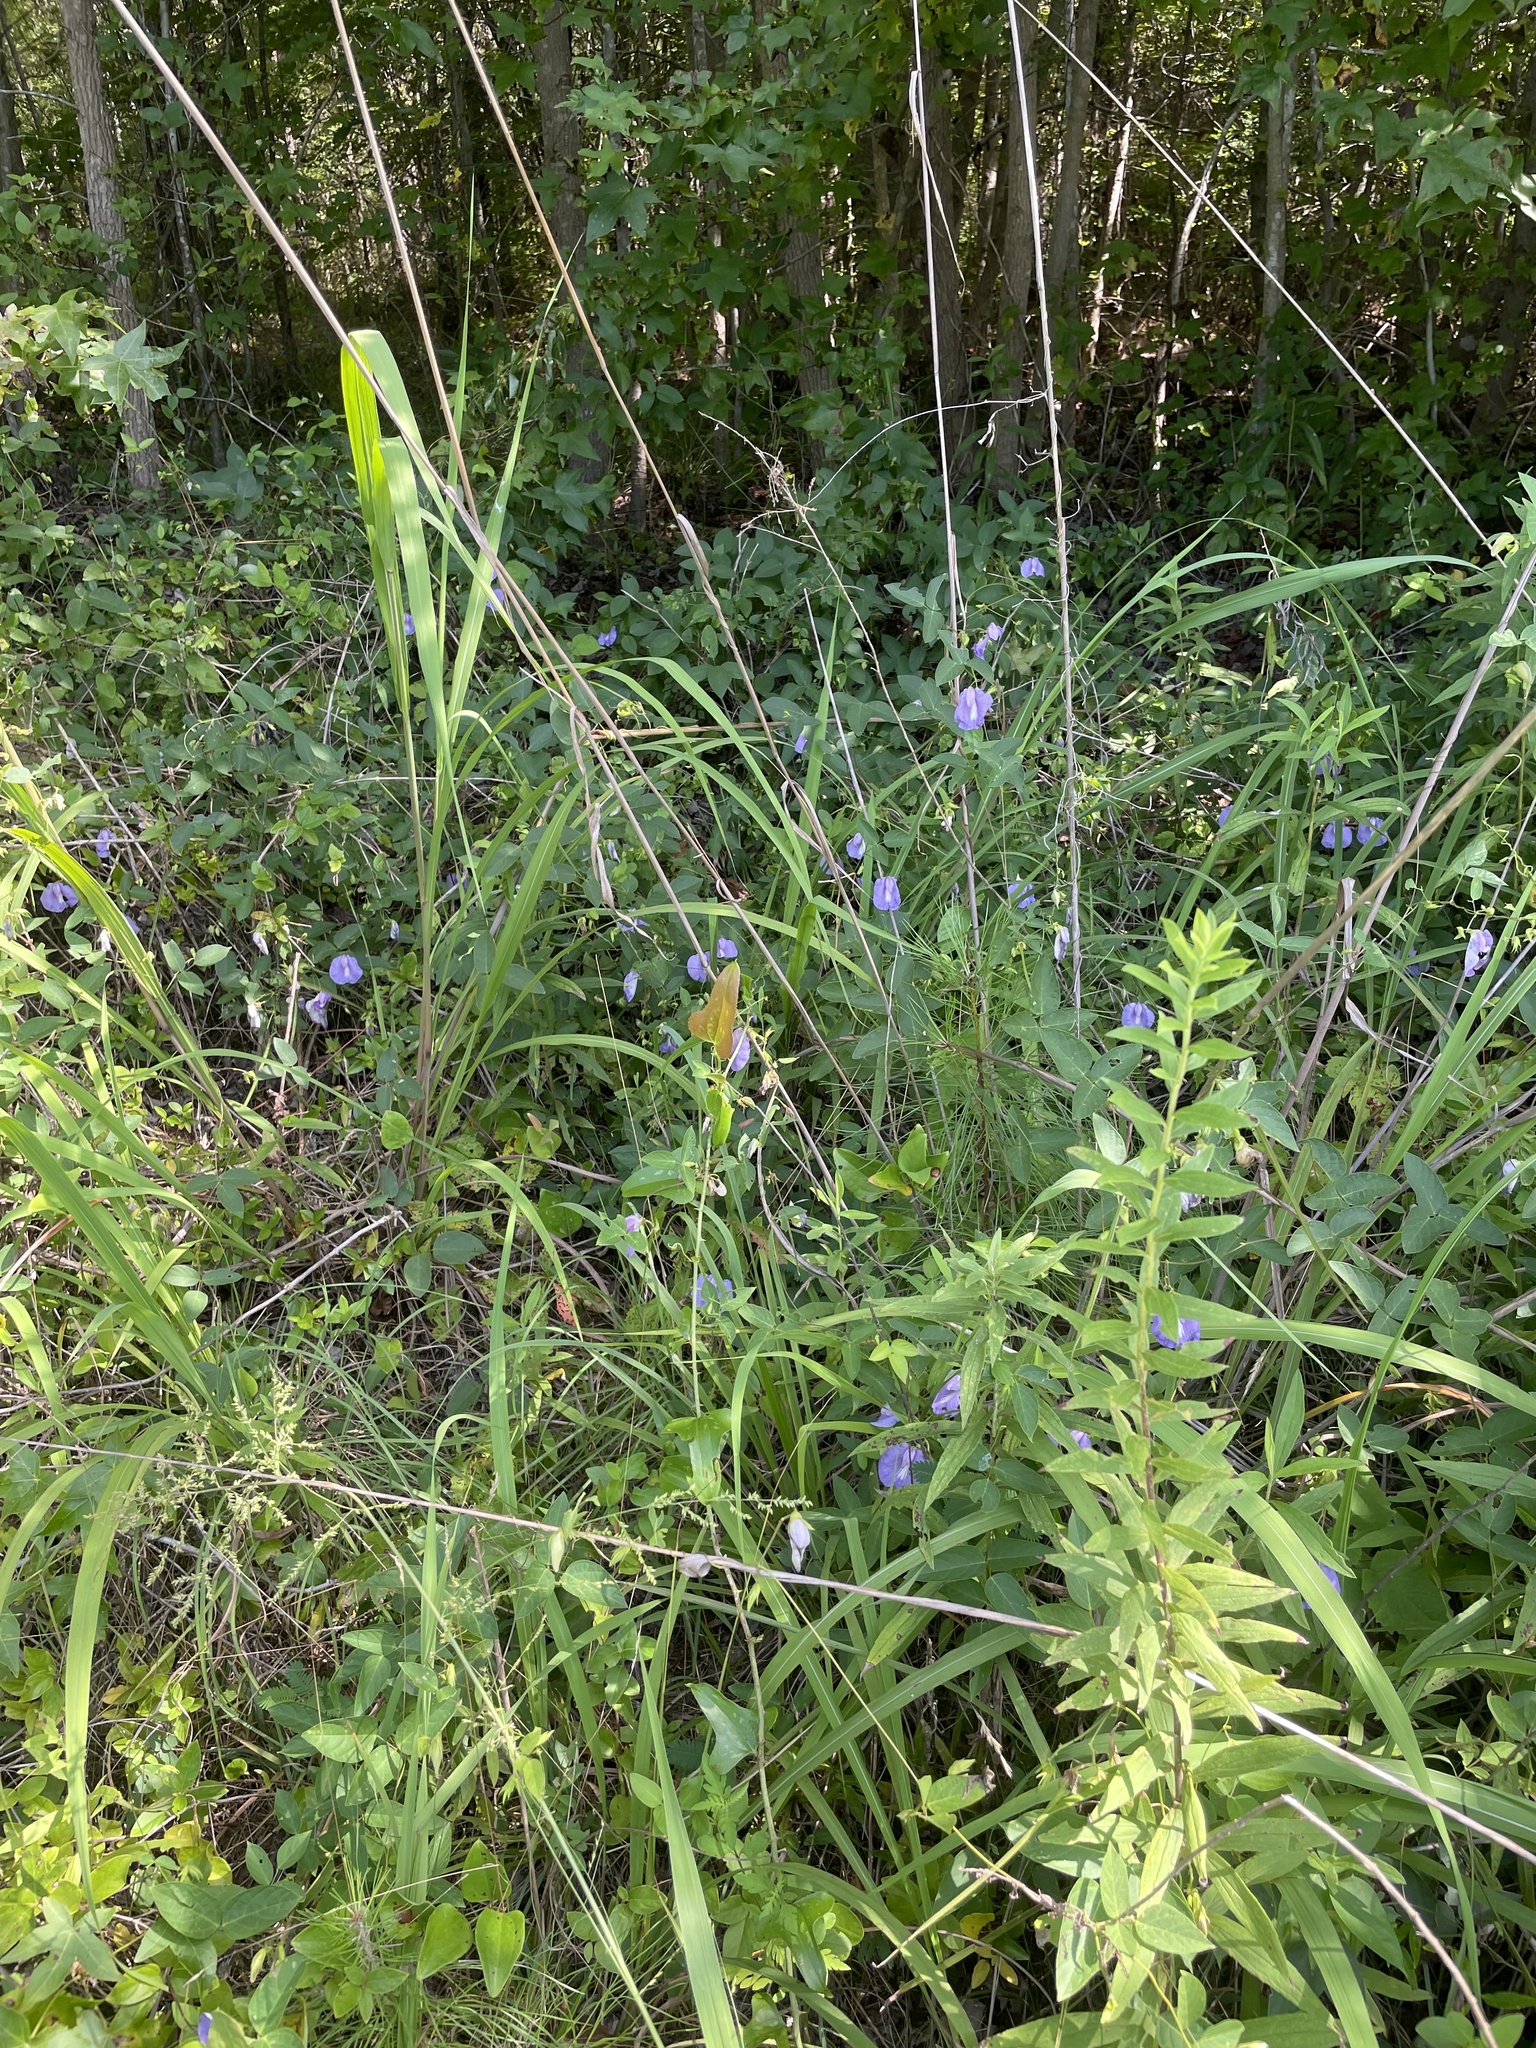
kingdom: Plantae
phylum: Tracheophyta
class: Magnoliopsida
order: Fabales
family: Fabaceae
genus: Centrosema
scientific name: Centrosema virginianum
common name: Butterfly-pea
